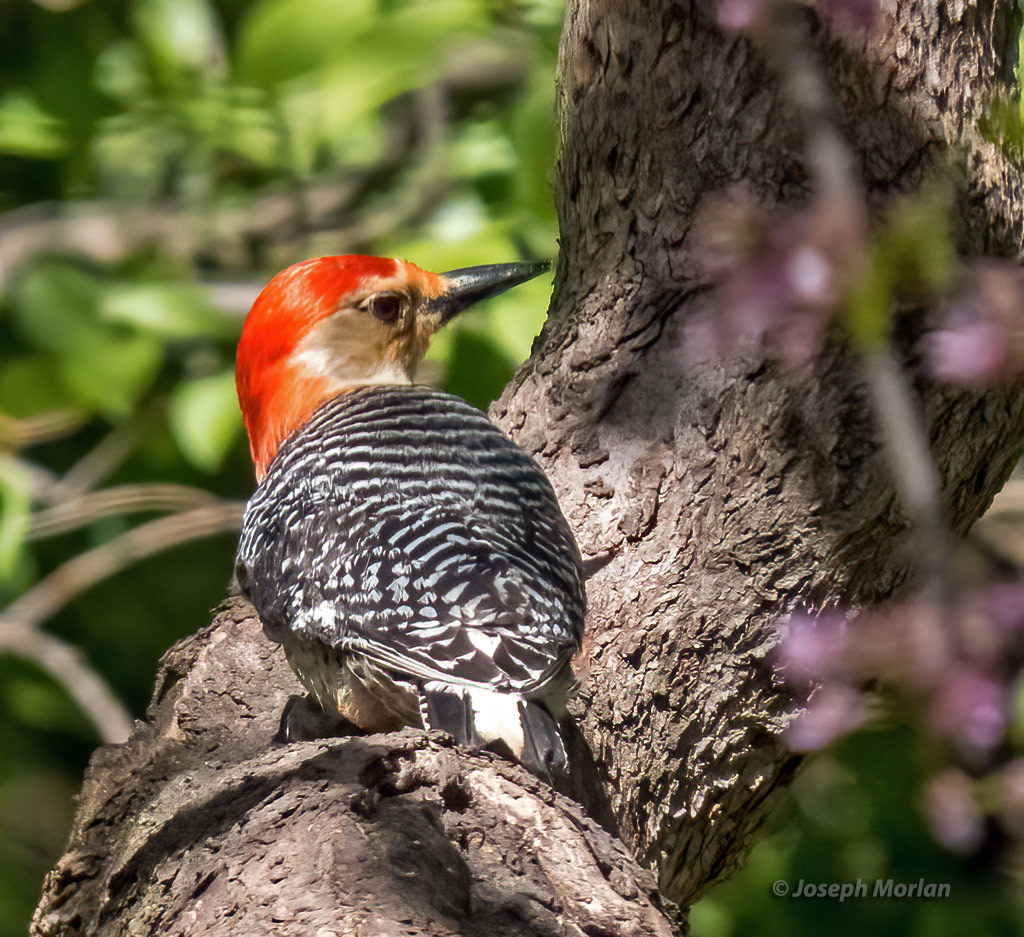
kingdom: Animalia
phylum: Chordata
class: Aves
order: Piciformes
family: Picidae
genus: Melanerpes
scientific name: Melanerpes carolinus
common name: Red-bellied woodpecker
